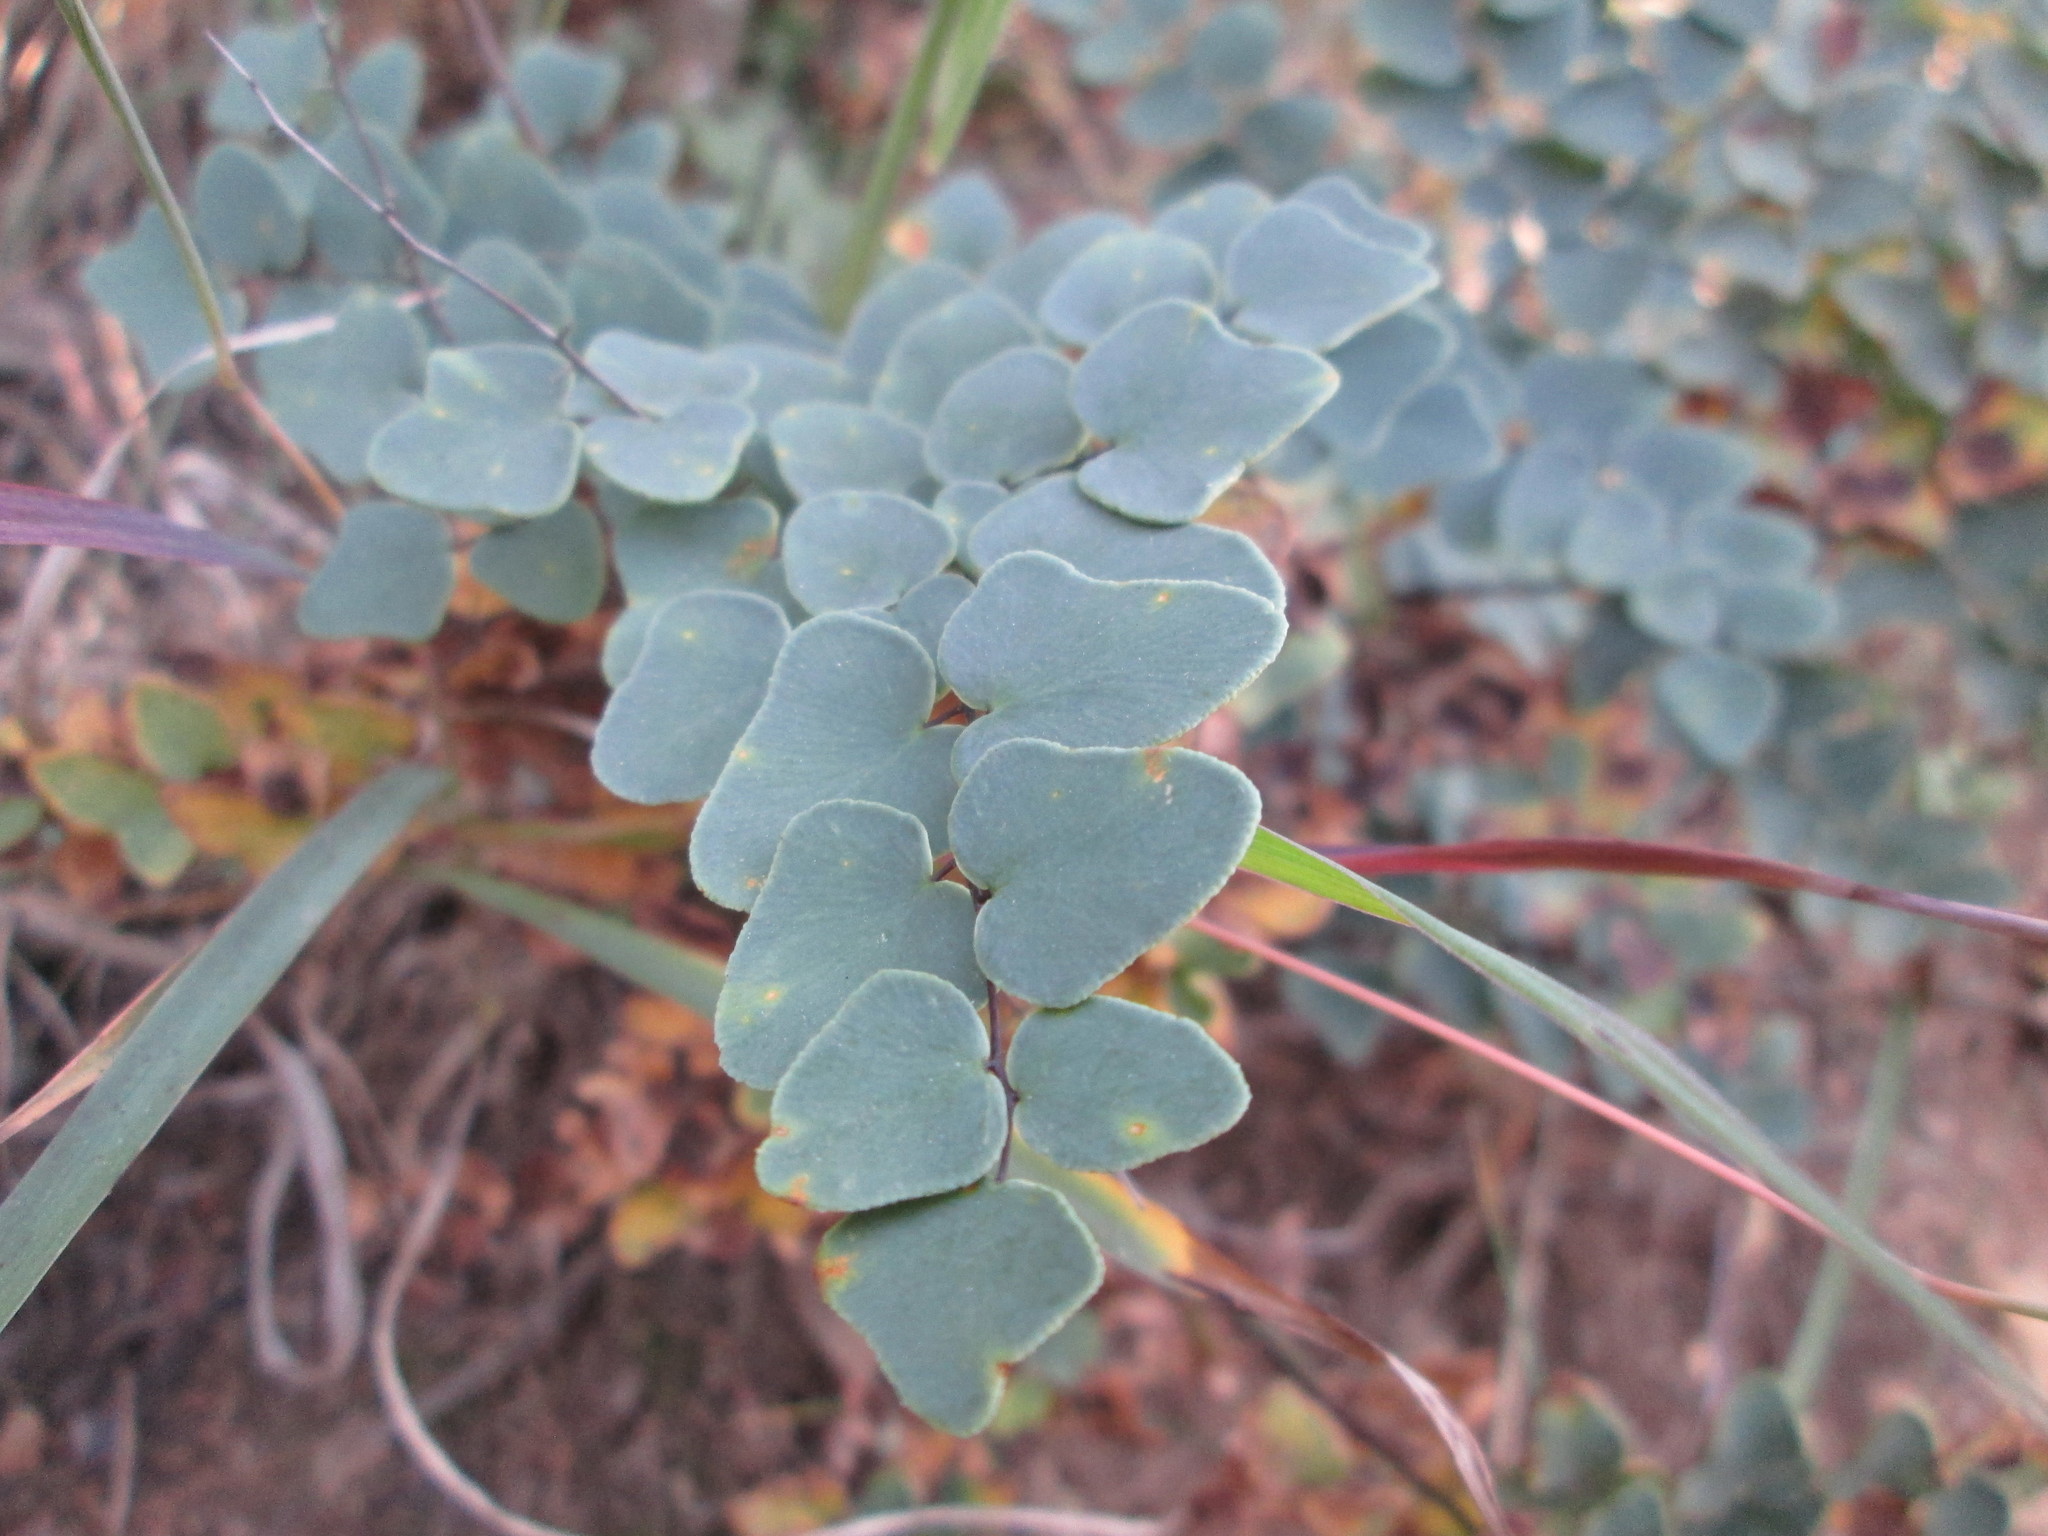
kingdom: Plantae
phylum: Tracheophyta
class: Polypodiopsida
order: Polypodiales
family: Pteridaceae
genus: Pellaea
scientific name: Pellaea calomelanos
